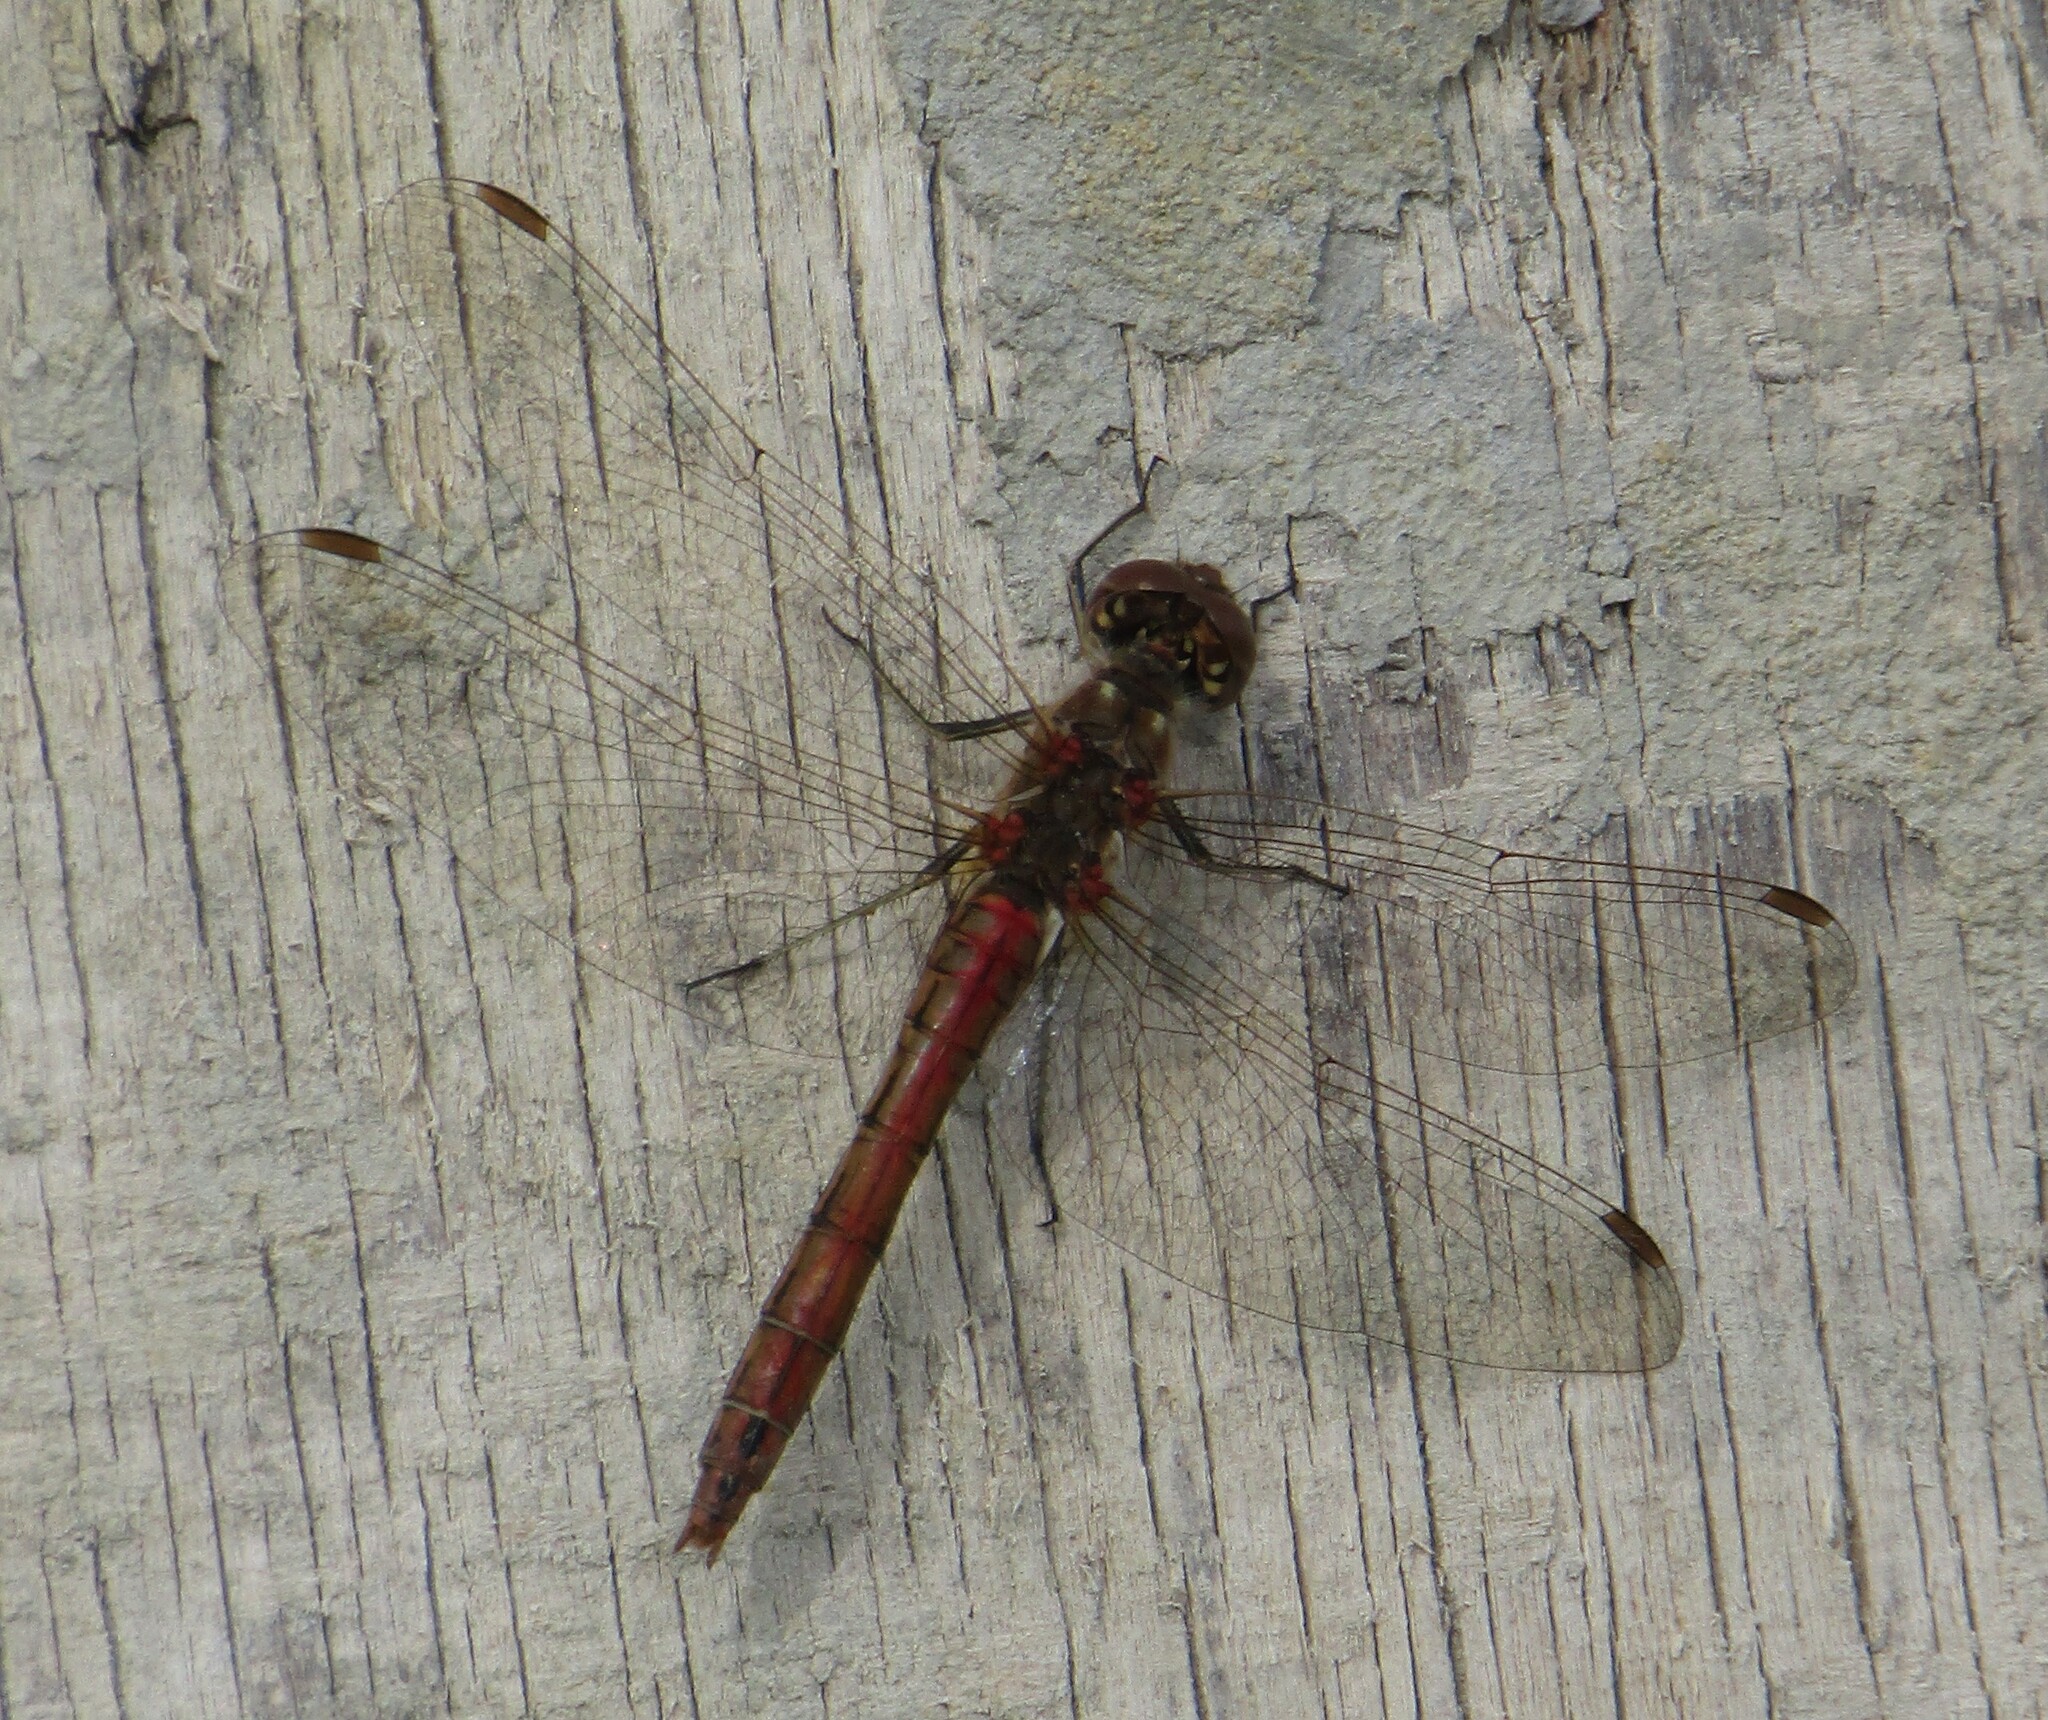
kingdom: Animalia
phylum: Arthropoda
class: Insecta
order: Odonata
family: Libellulidae
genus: Sympetrum
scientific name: Sympetrum vulgatum
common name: Vagrant darter
